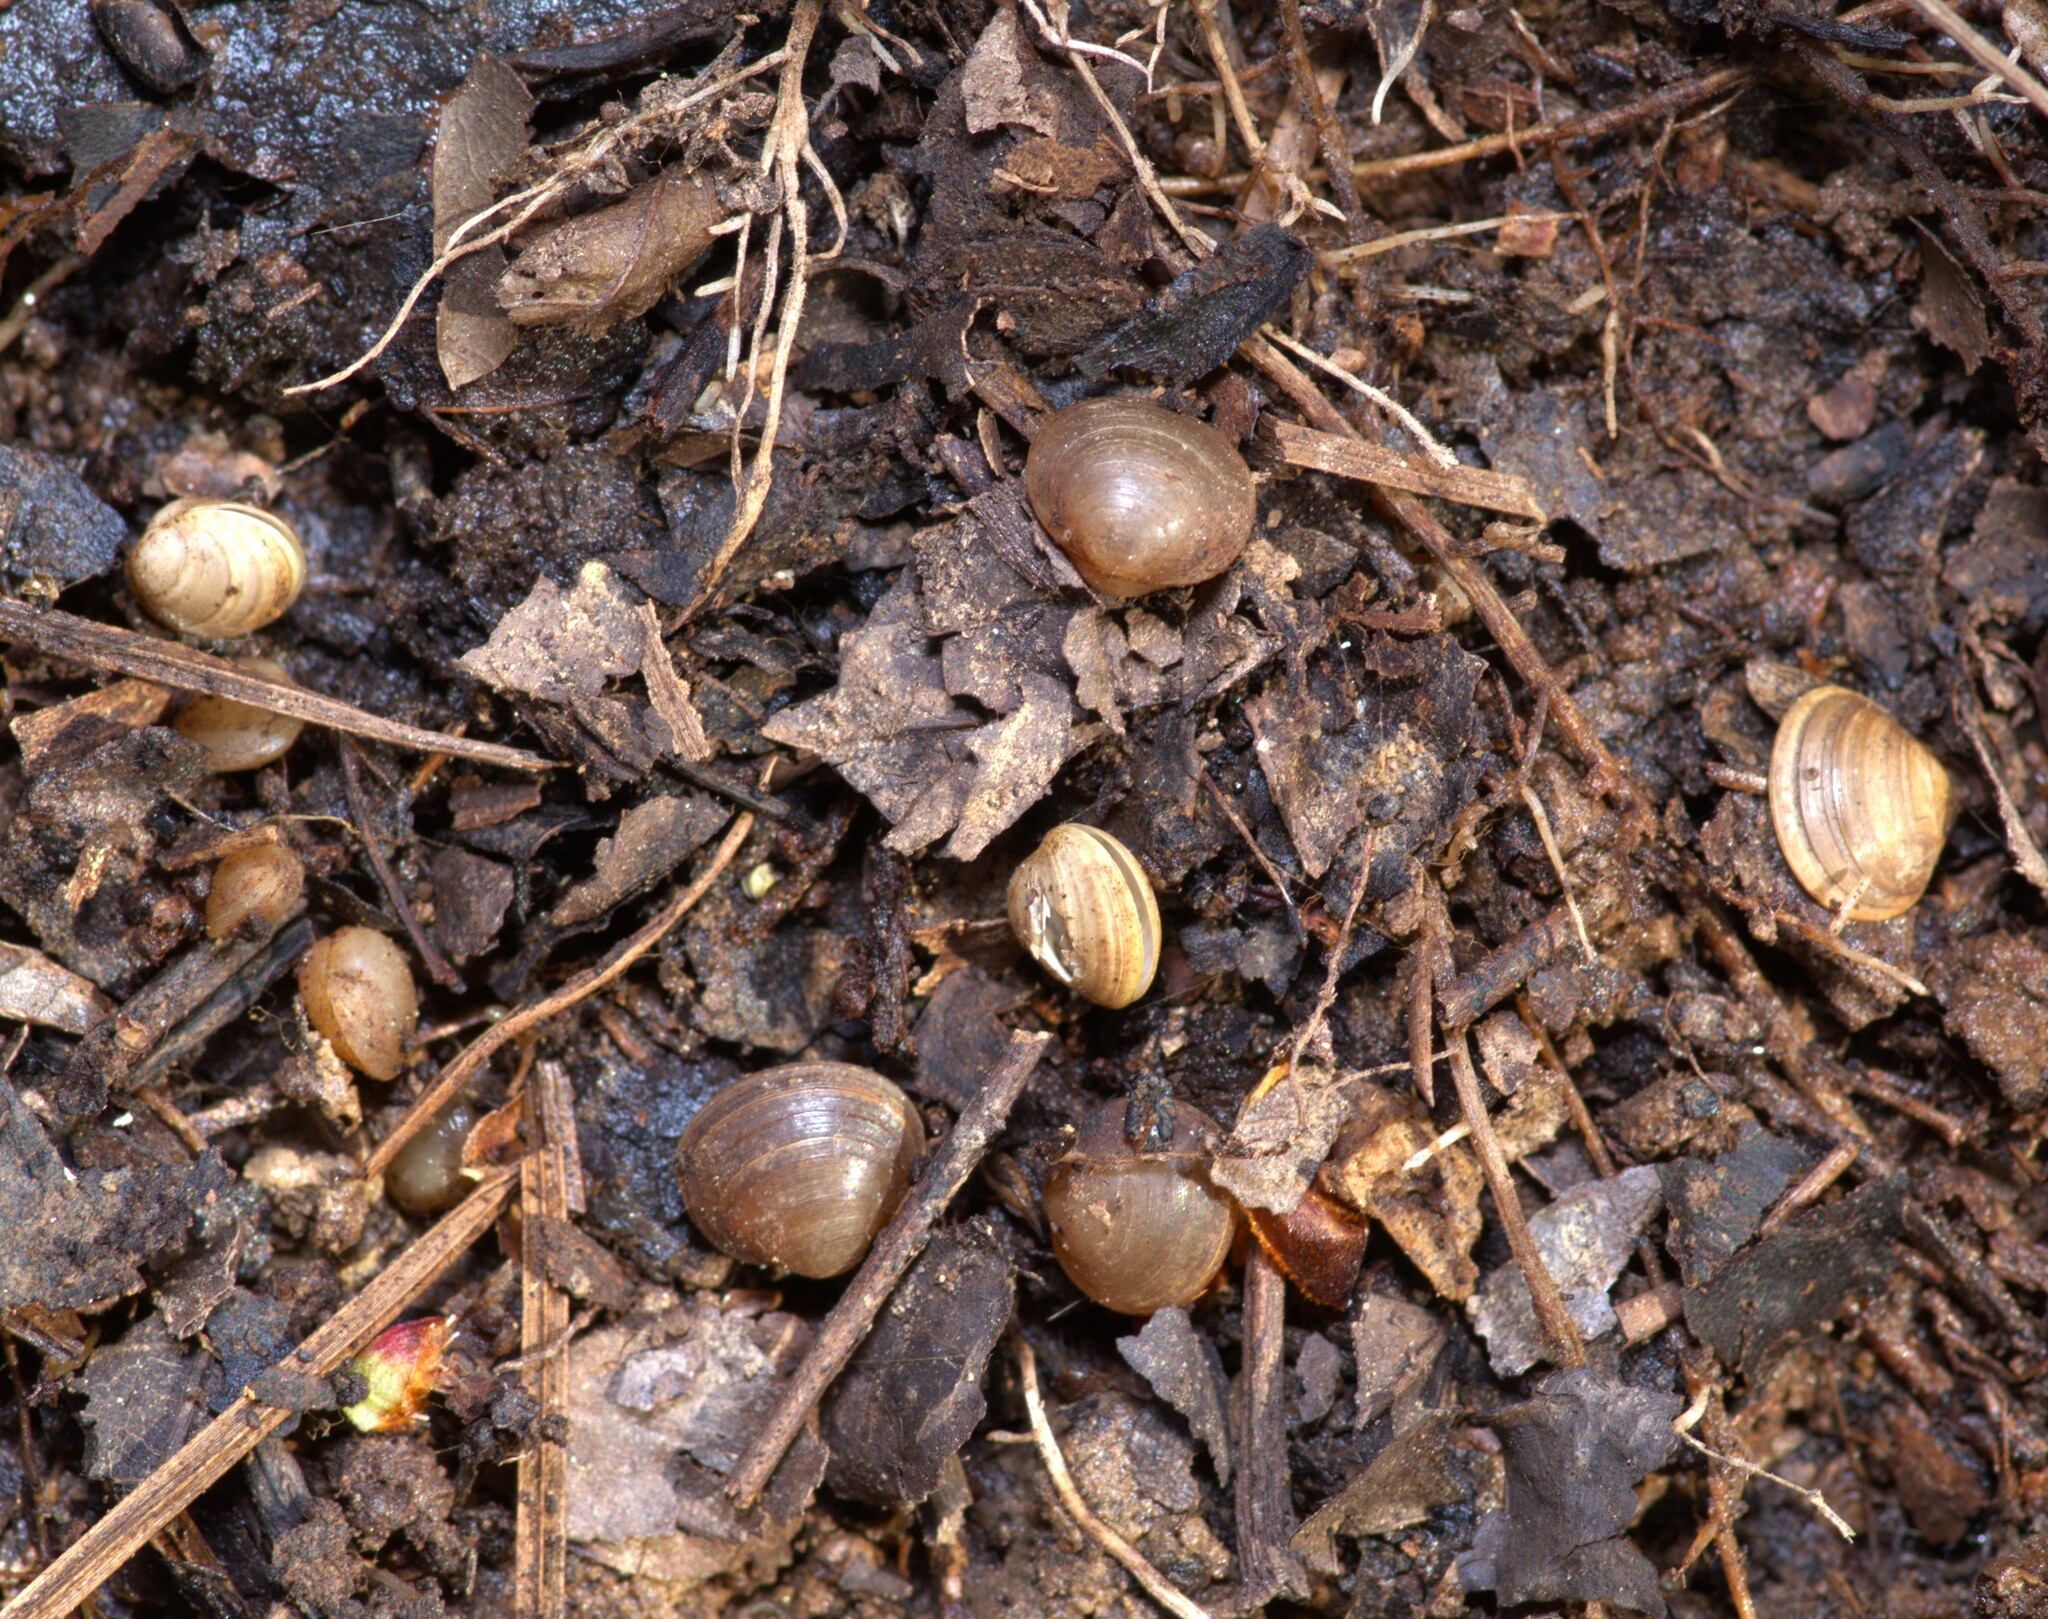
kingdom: Animalia
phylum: Mollusca
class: Bivalvia
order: Sphaeriida
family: Sphaeriidae
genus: Sphaerium
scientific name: Sphaerium occidentale
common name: Herrington fingernailclam
